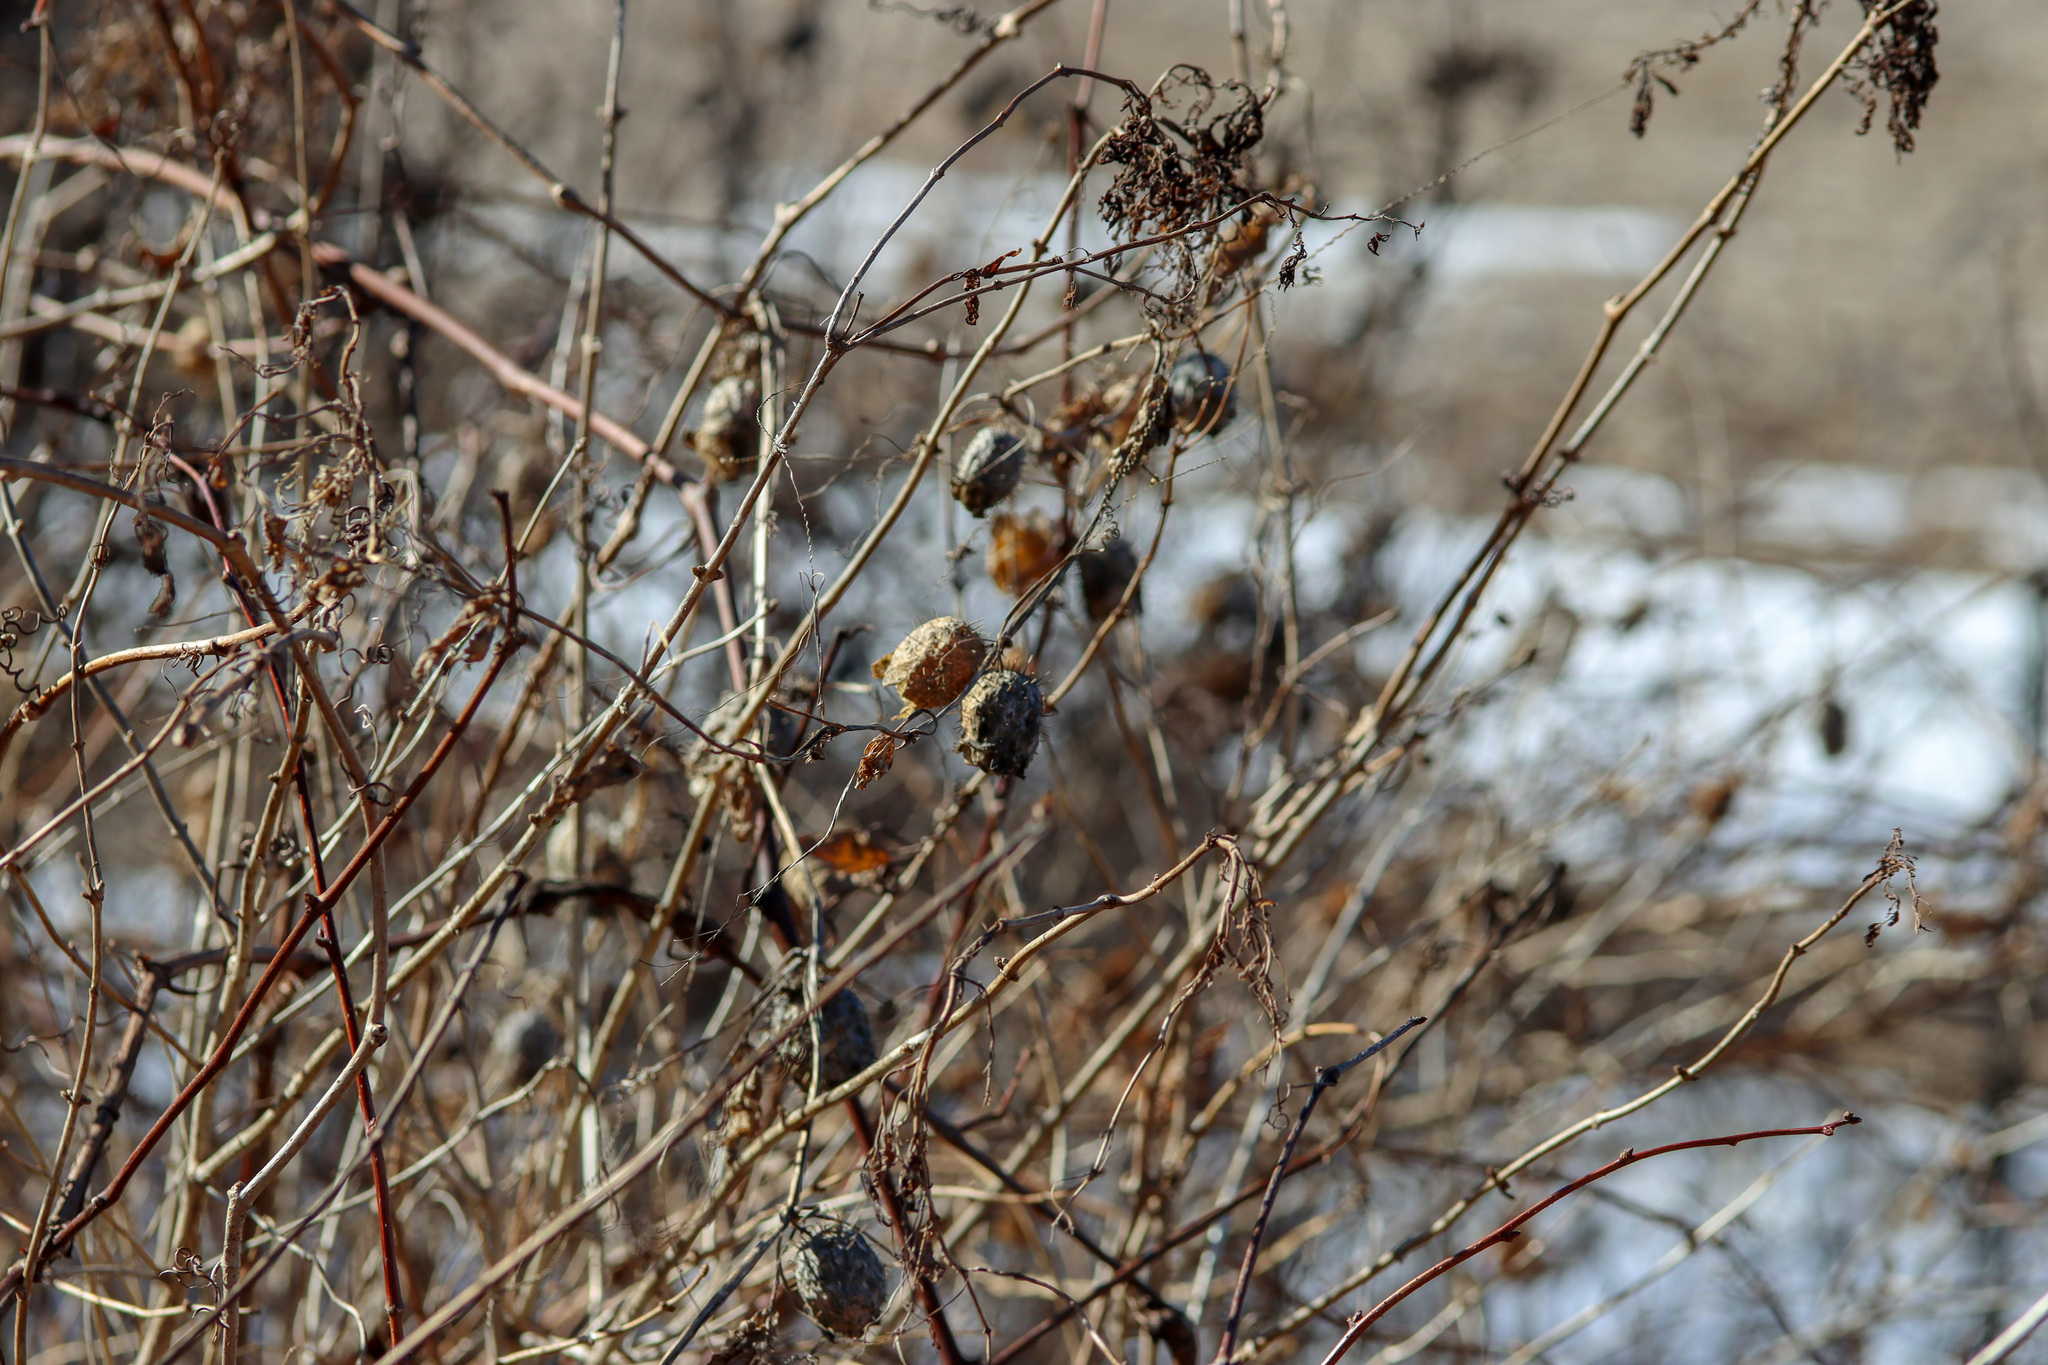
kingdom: Plantae
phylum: Tracheophyta
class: Magnoliopsida
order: Cucurbitales
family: Cucurbitaceae
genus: Echinocystis
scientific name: Echinocystis lobata
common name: Wild cucumber
